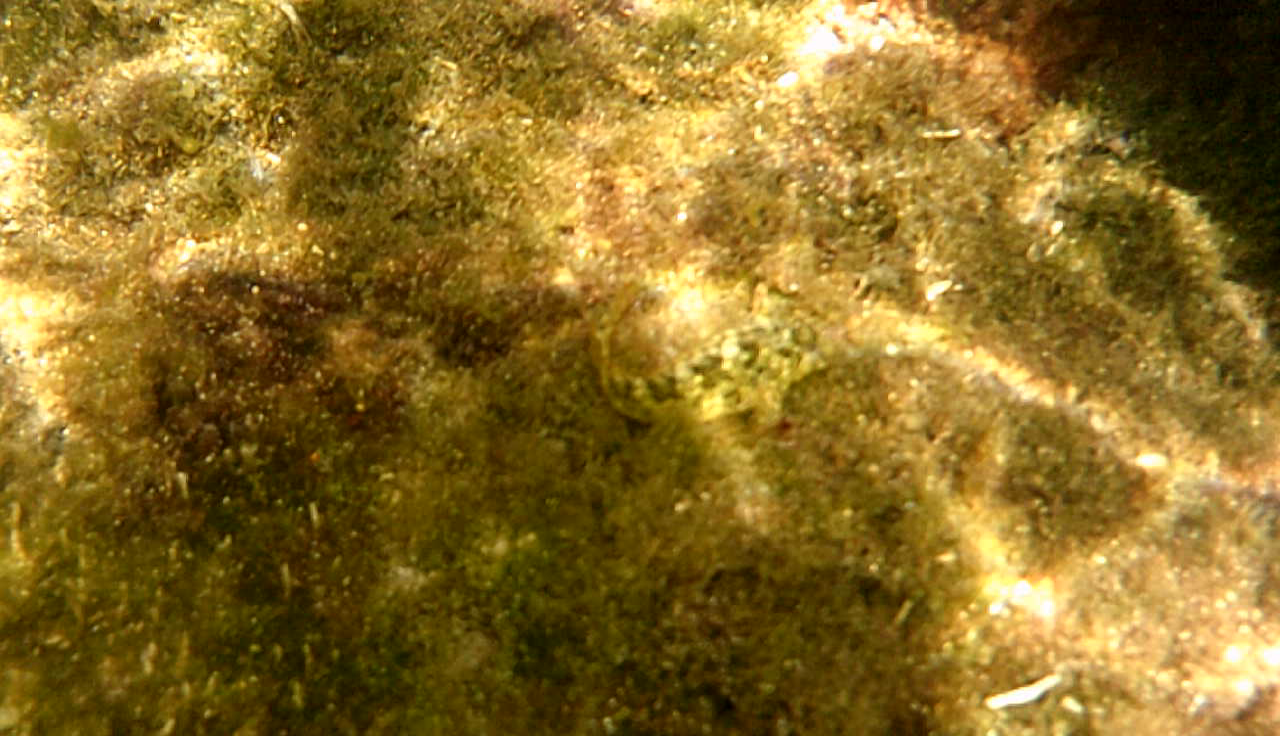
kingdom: Animalia
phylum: Chordata
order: Perciformes
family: Blenniidae
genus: Parablennius
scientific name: Parablennius sanguinolentus
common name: Black sea blenny
